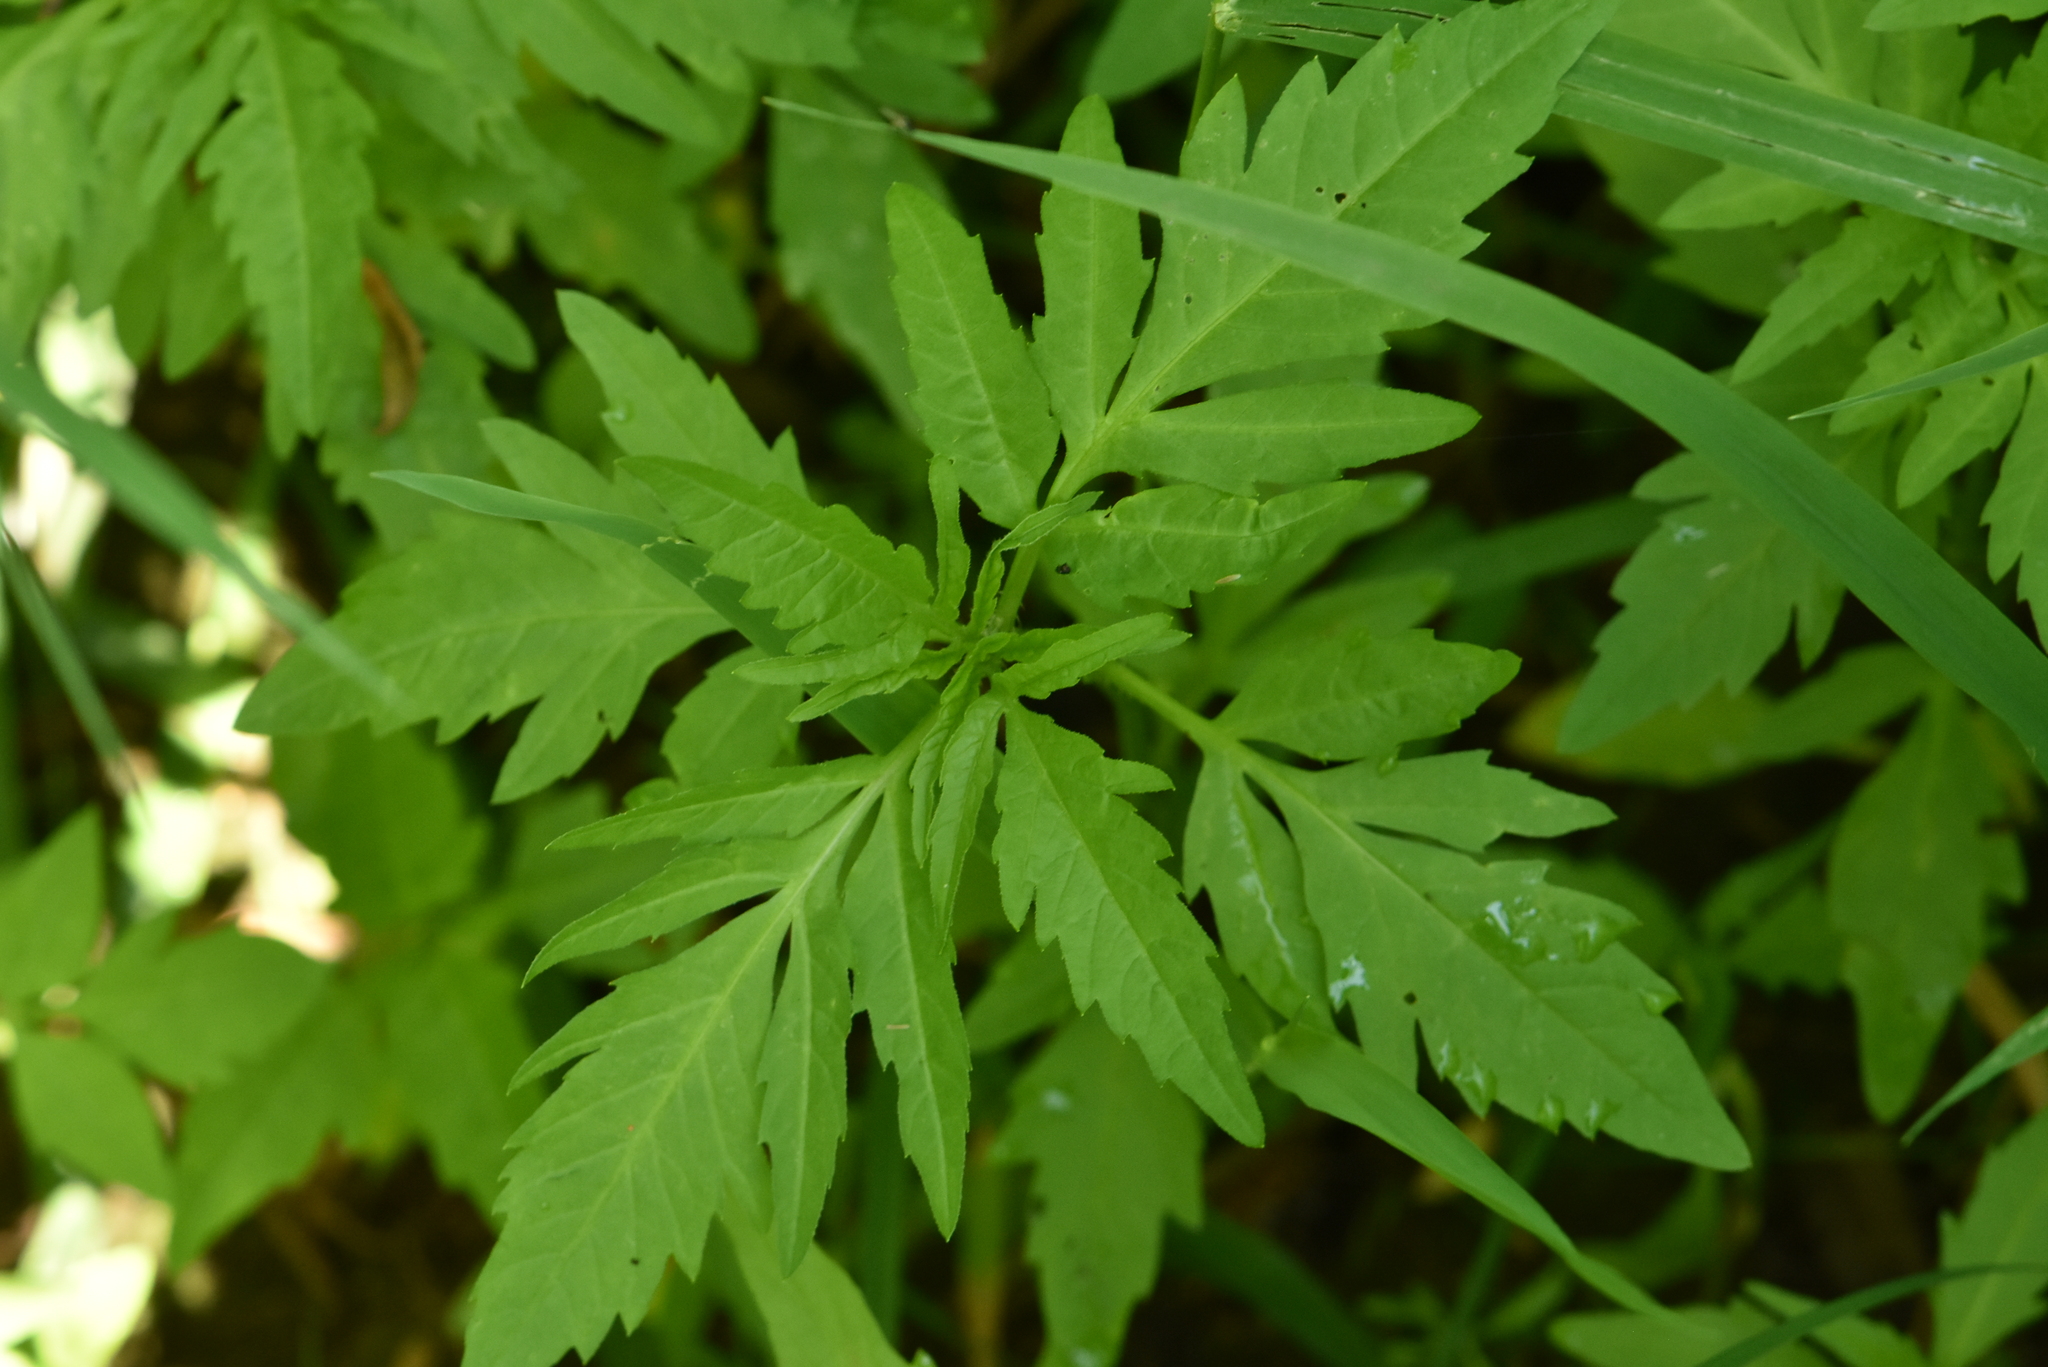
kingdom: Plantae
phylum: Tracheophyta
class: Magnoliopsida
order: Asterales
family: Asteraceae
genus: Bidens
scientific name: Bidens tripartita
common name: Trifid bur-marigold
